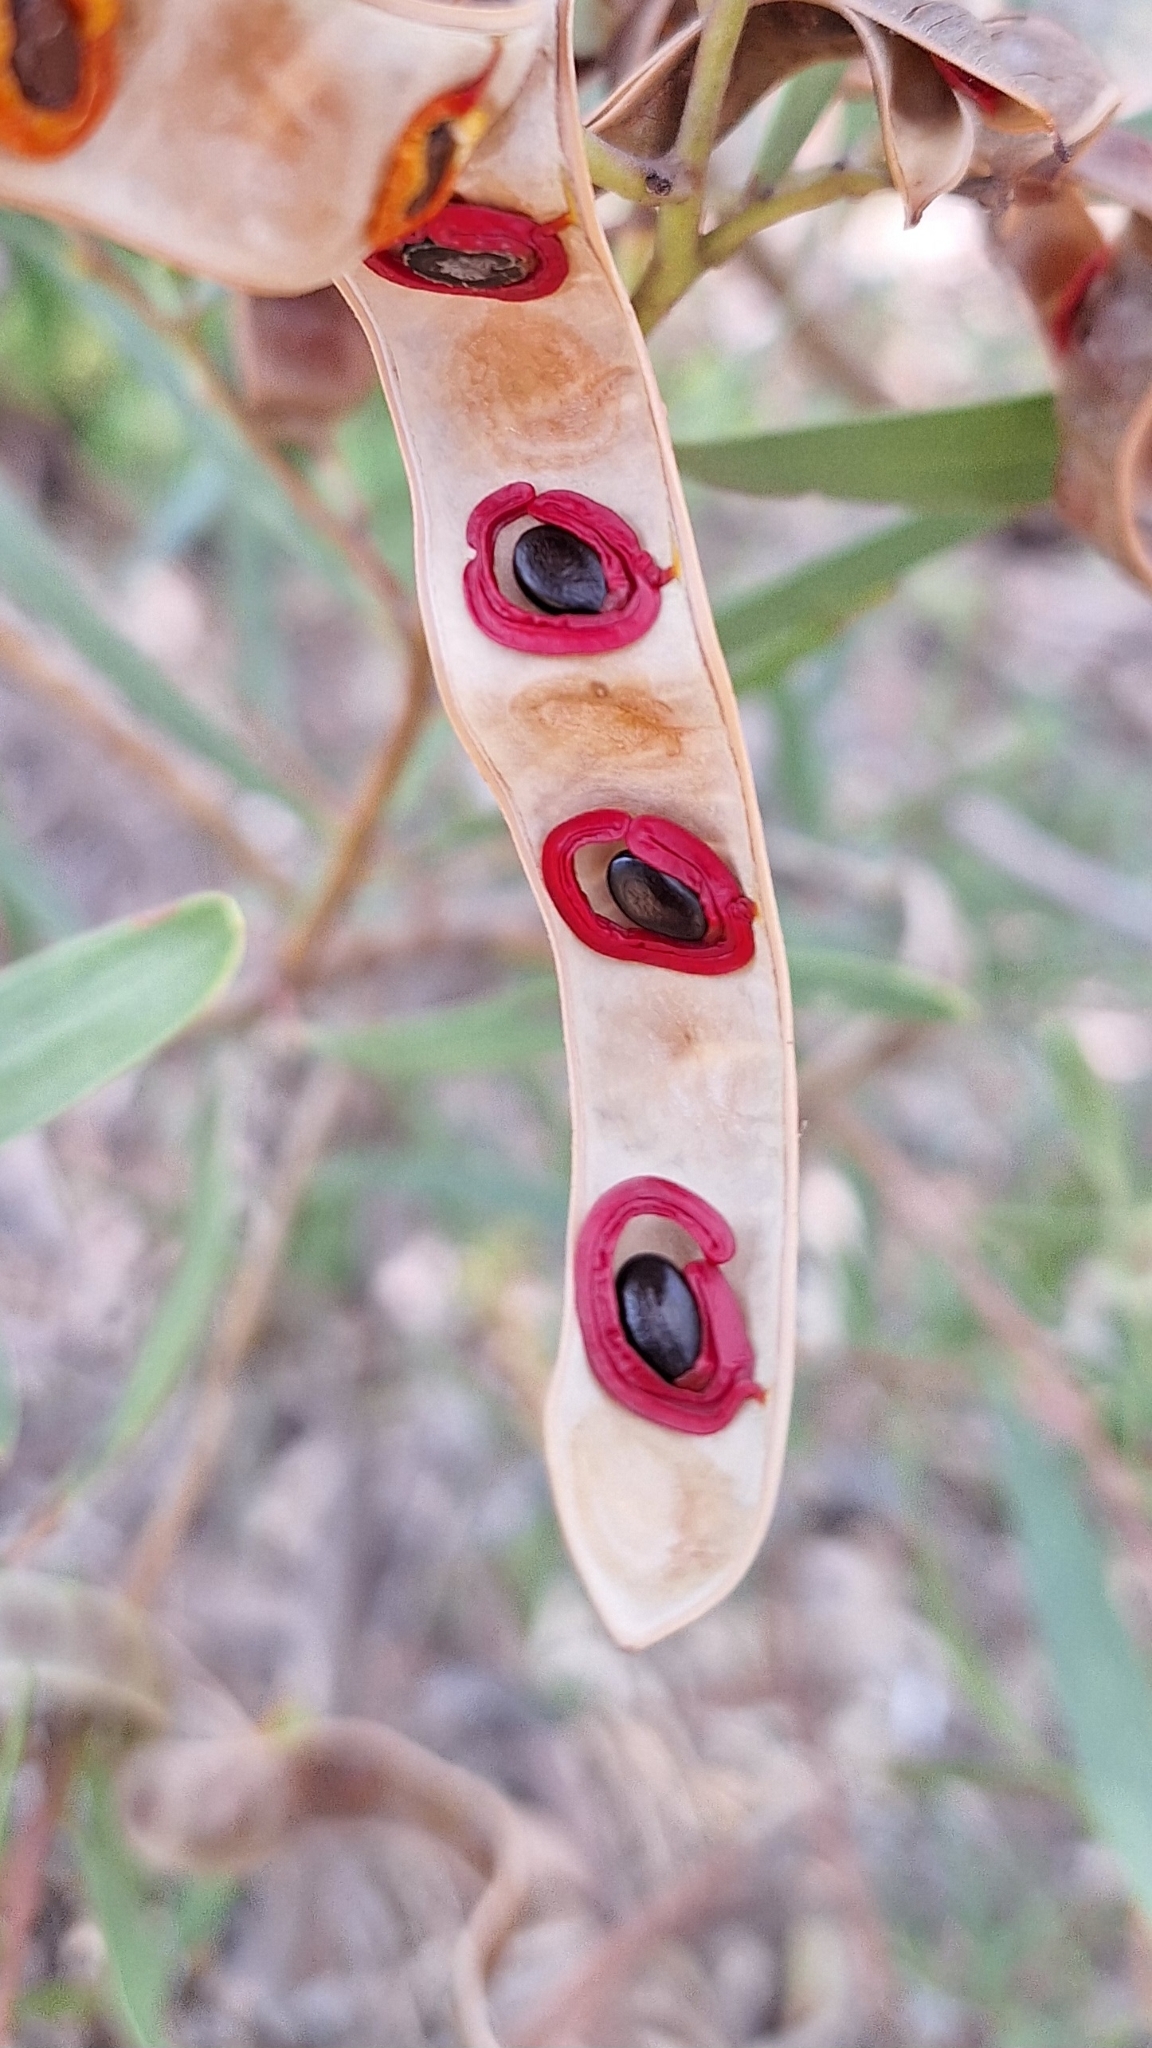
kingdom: Plantae
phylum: Tracheophyta
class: Magnoliopsida
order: Fabales
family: Fabaceae
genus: Acacia
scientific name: Acacia cyclops
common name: Coastal wattle
